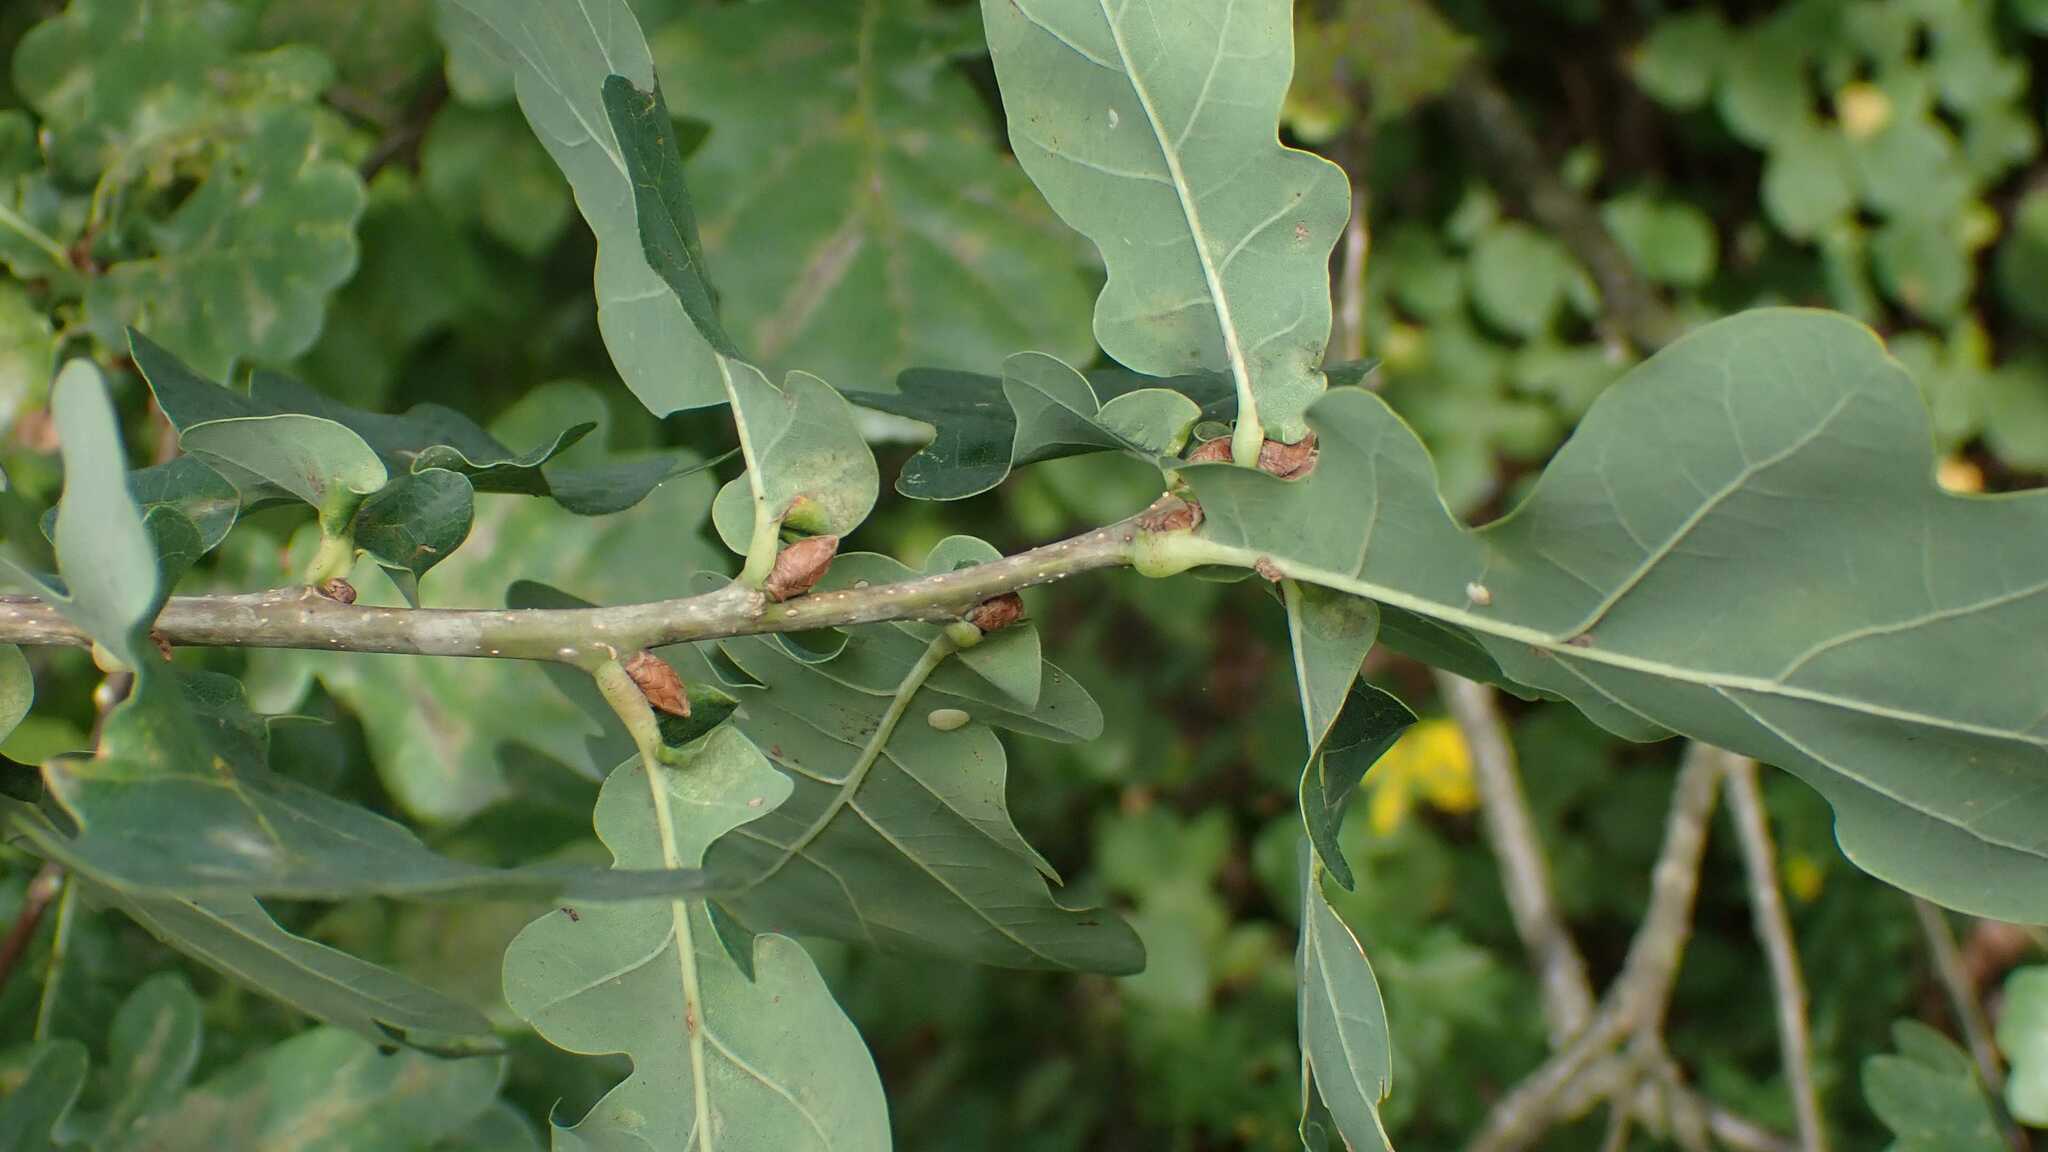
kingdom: Plantae
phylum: Tracheophyta
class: Magnoliopsida
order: Fagales
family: Fagaceae
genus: Quercus
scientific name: Quercus robur
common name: Pedunculate oak
